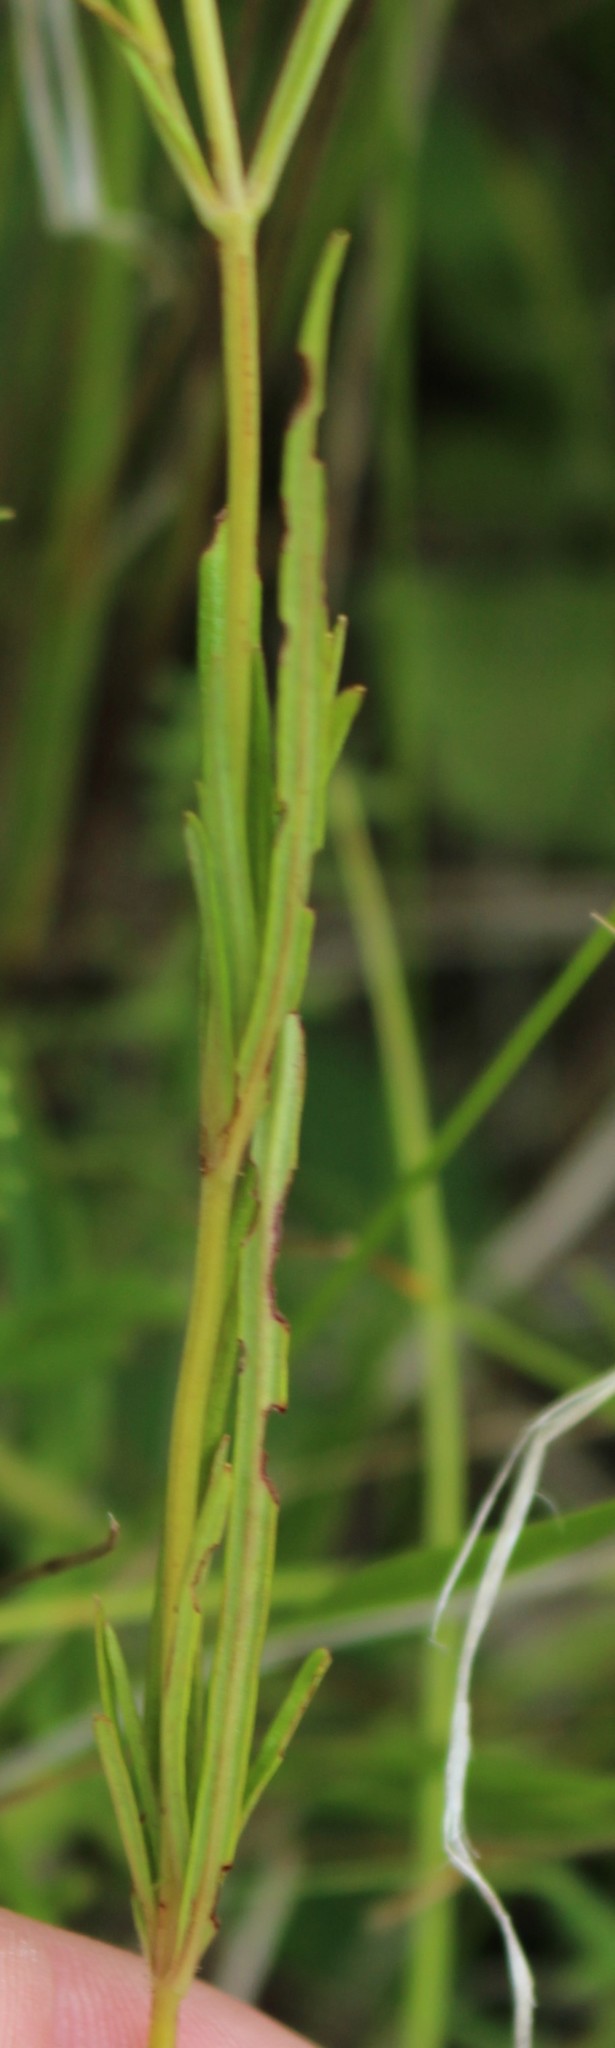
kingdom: Plantae
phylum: Tracheophyta
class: Magnoliopsida
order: Ericales
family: Primulaceae
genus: Lysimachia
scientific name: Lysimachia quadriflora
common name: Four-flowered loosestrife
